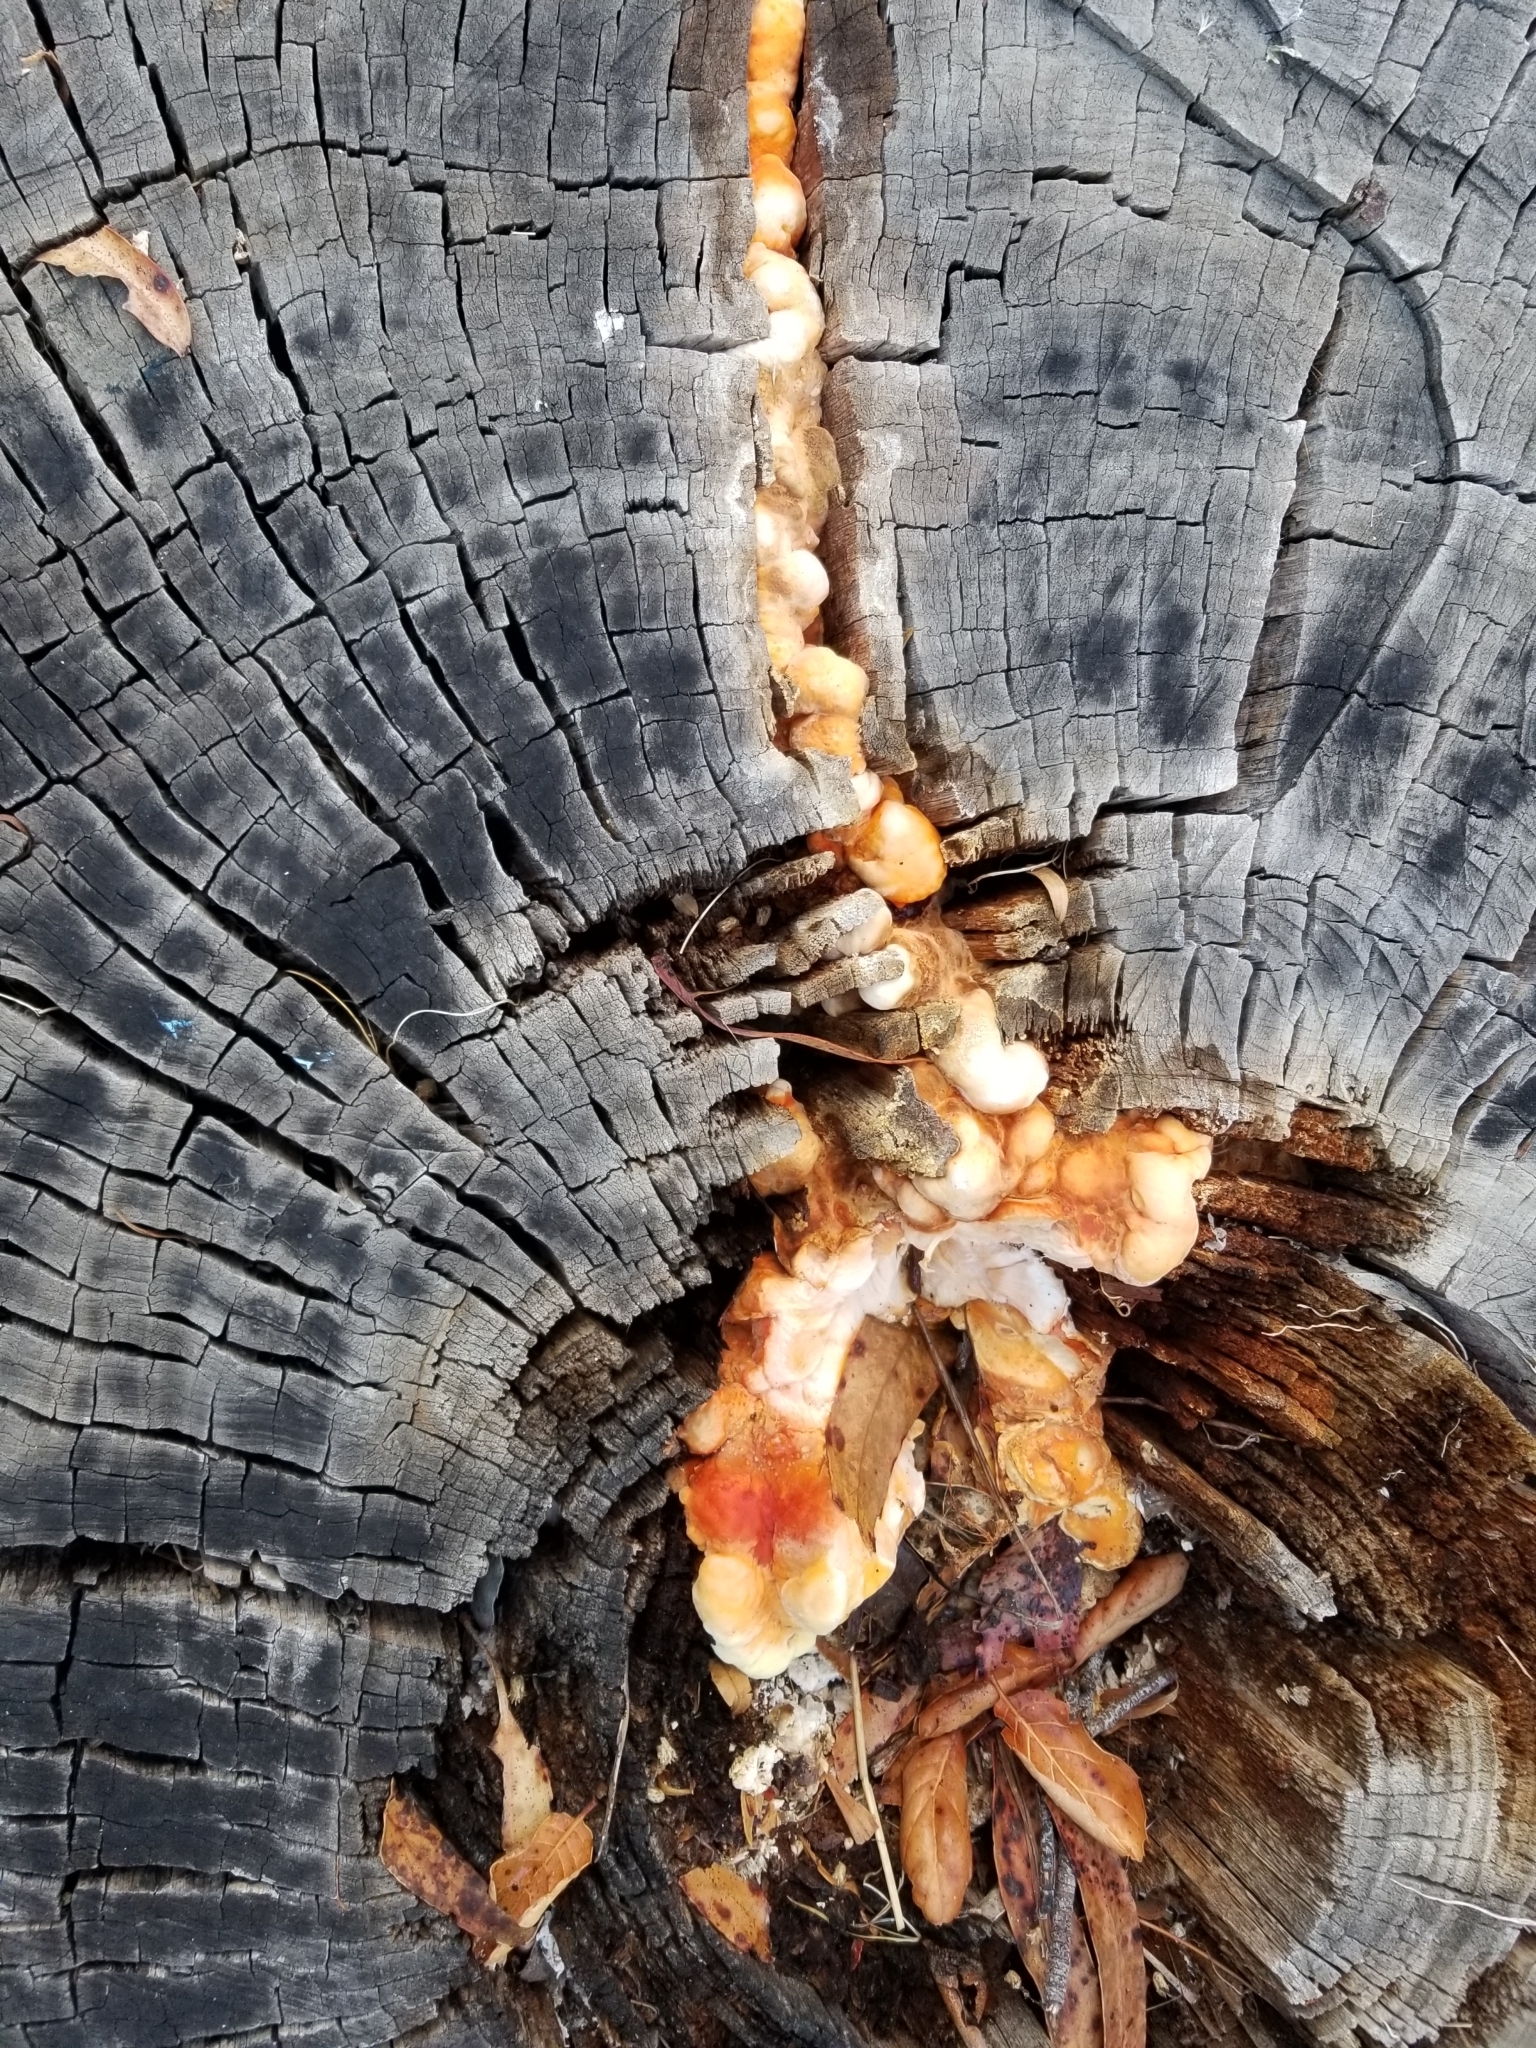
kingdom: Fungi
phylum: Basidiomycota
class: Agaricomycetes
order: Polyporales
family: Laetiporaceae
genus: Laetiporus
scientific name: Laetiporus gilbertsonii
